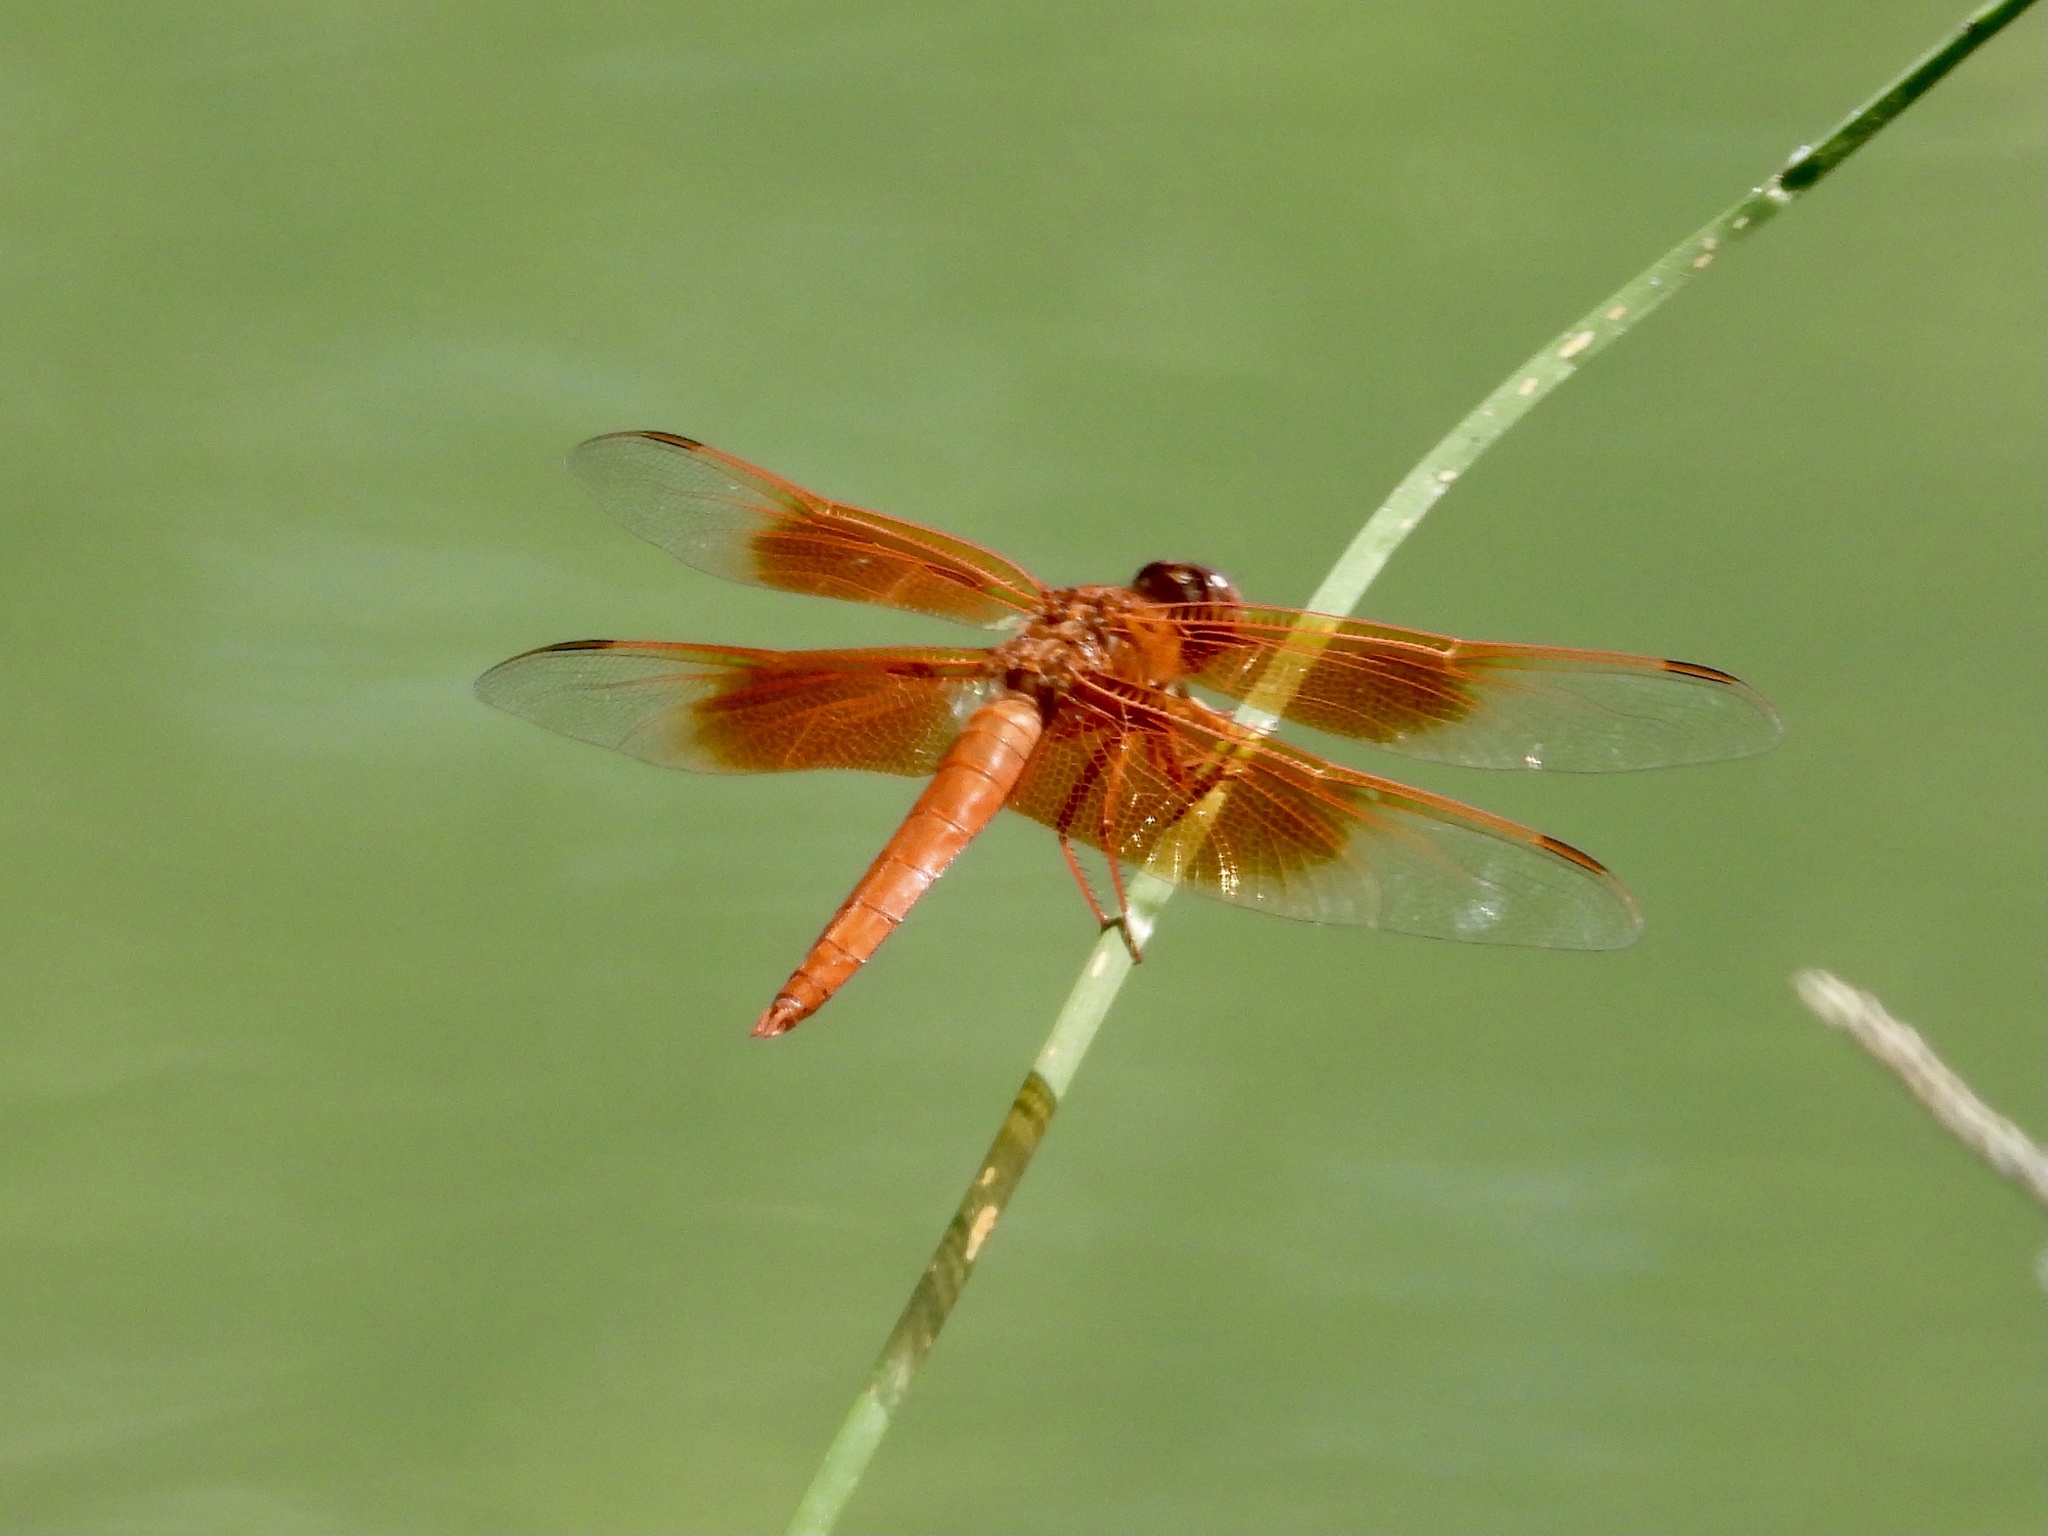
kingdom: Animalia
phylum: Arthropoda
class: Insecta
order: Odonata
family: Libellulidae
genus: Libellula
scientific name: Libellula saturata
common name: Flame skimmer
